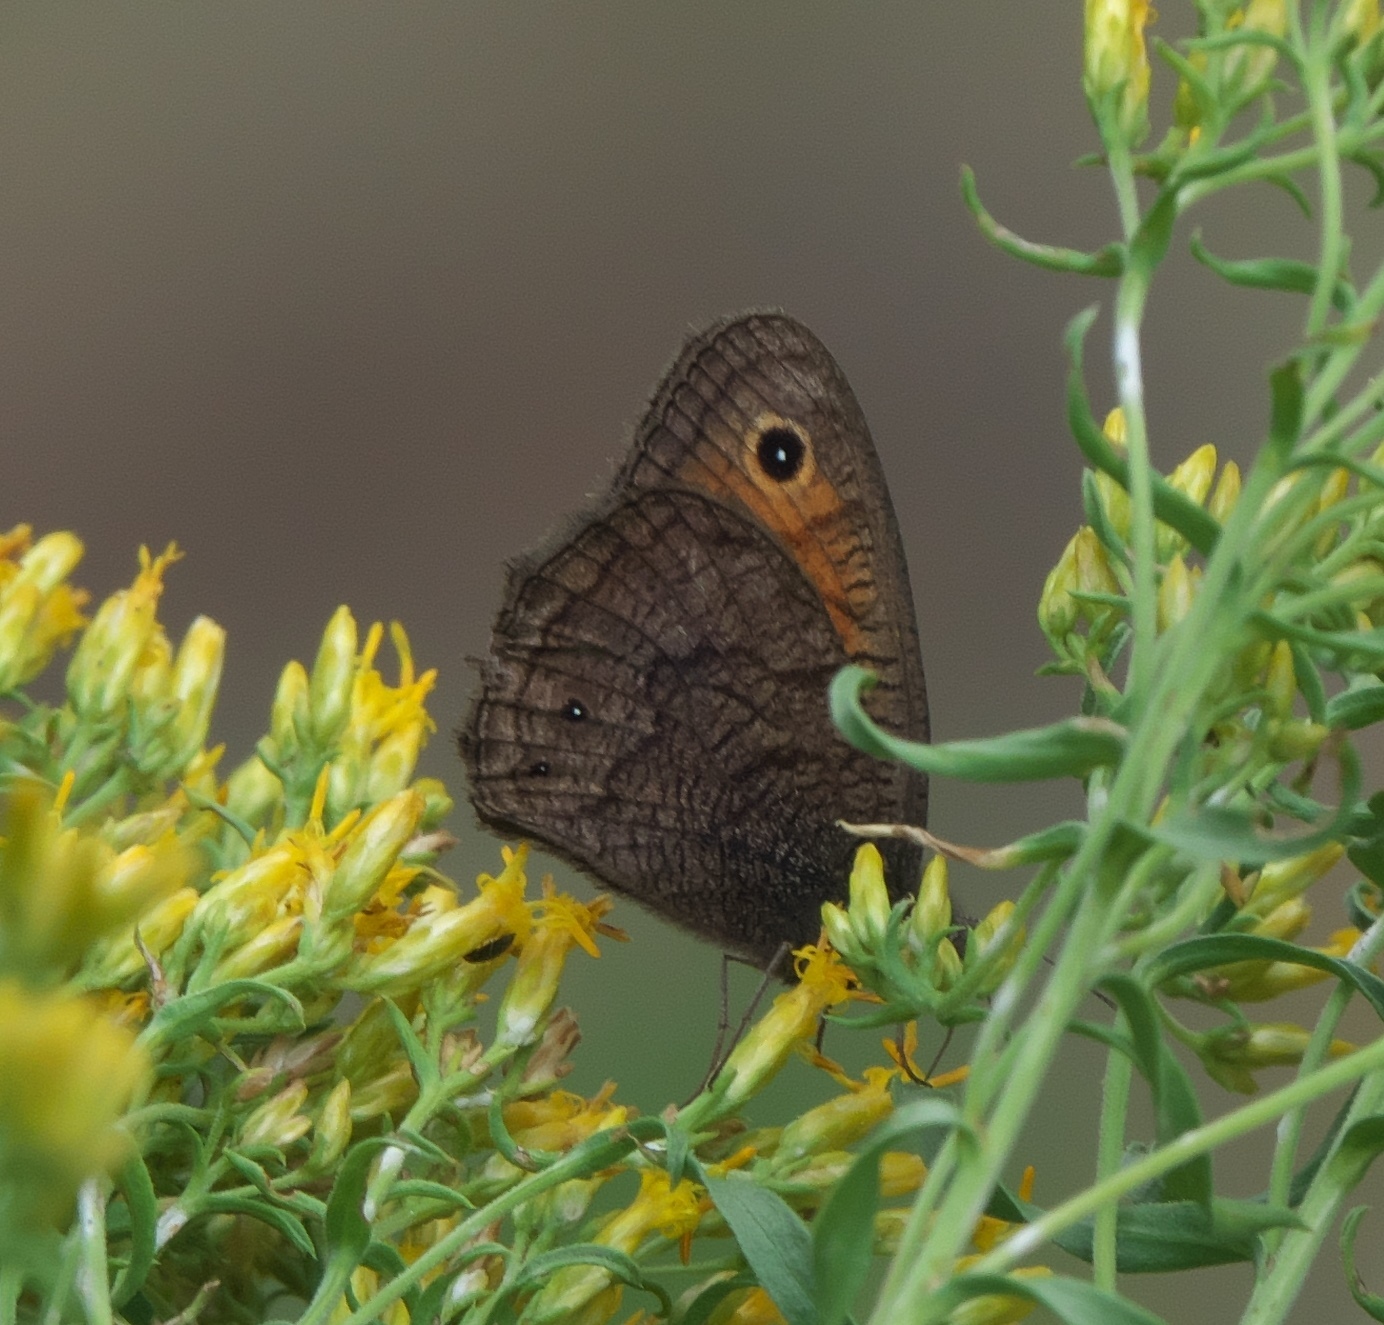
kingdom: Animalia
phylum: Arthropoda
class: Insecta
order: Lepidoptera
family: Nymphalidae
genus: Cercyonis
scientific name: Cercyonis meadi
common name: Mead's wood-nymph
